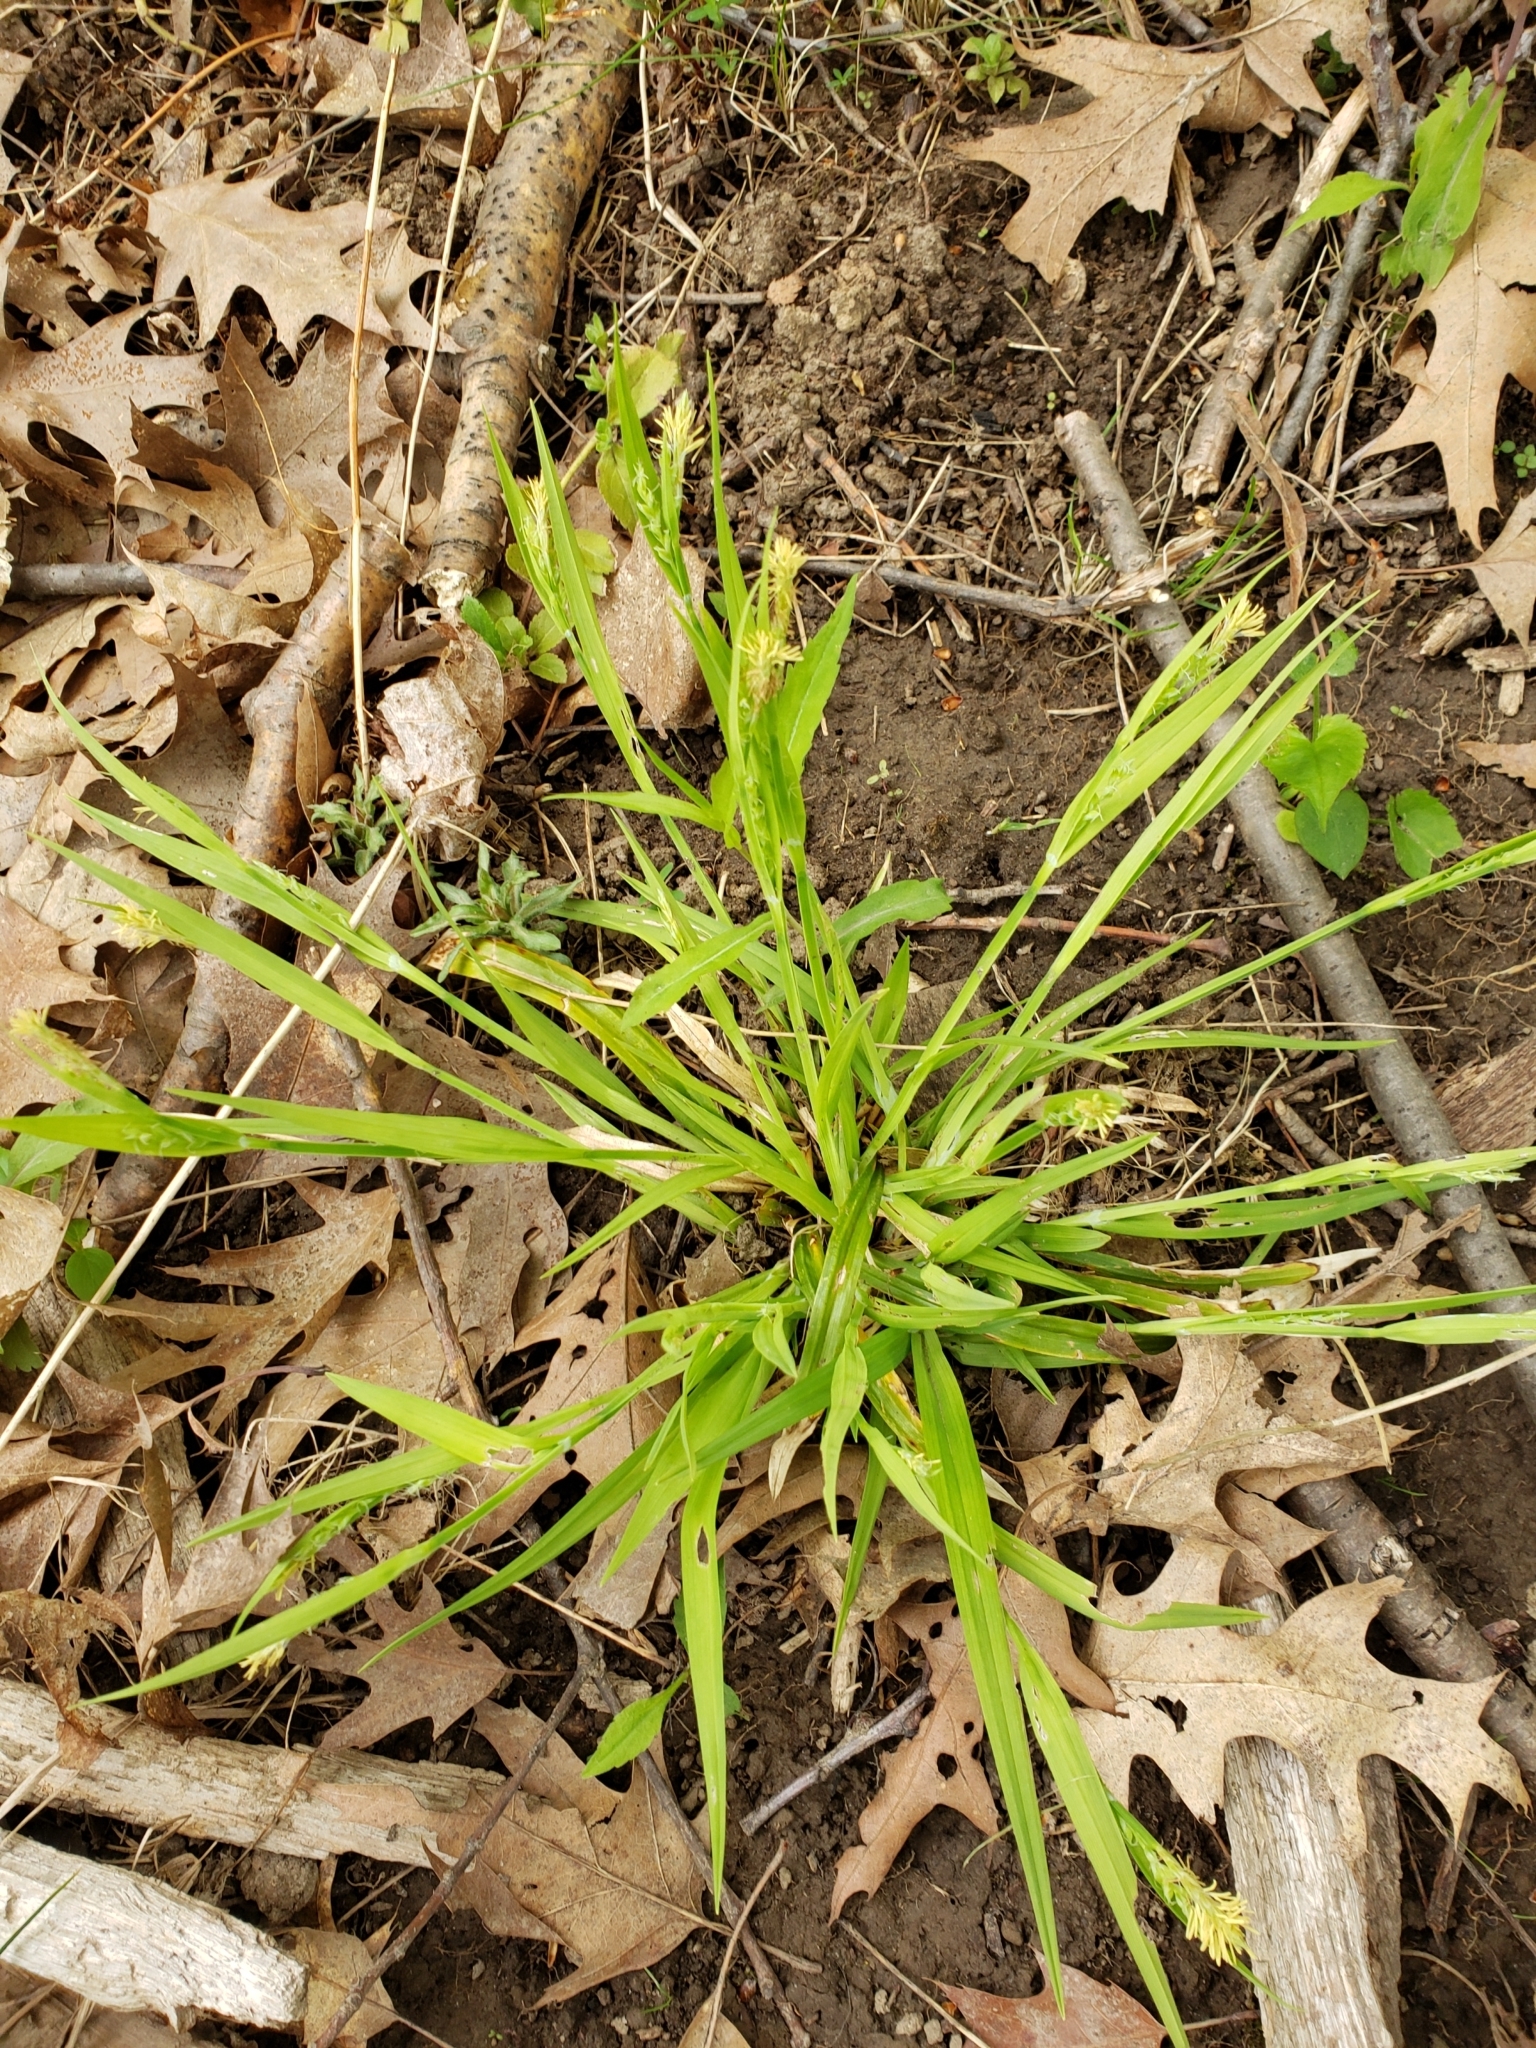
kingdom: Plantae
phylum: Tracheophyta
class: Liliopsida
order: Poales
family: Cyperaceae
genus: Carex
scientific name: Carex blanda
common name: Bland sedge
